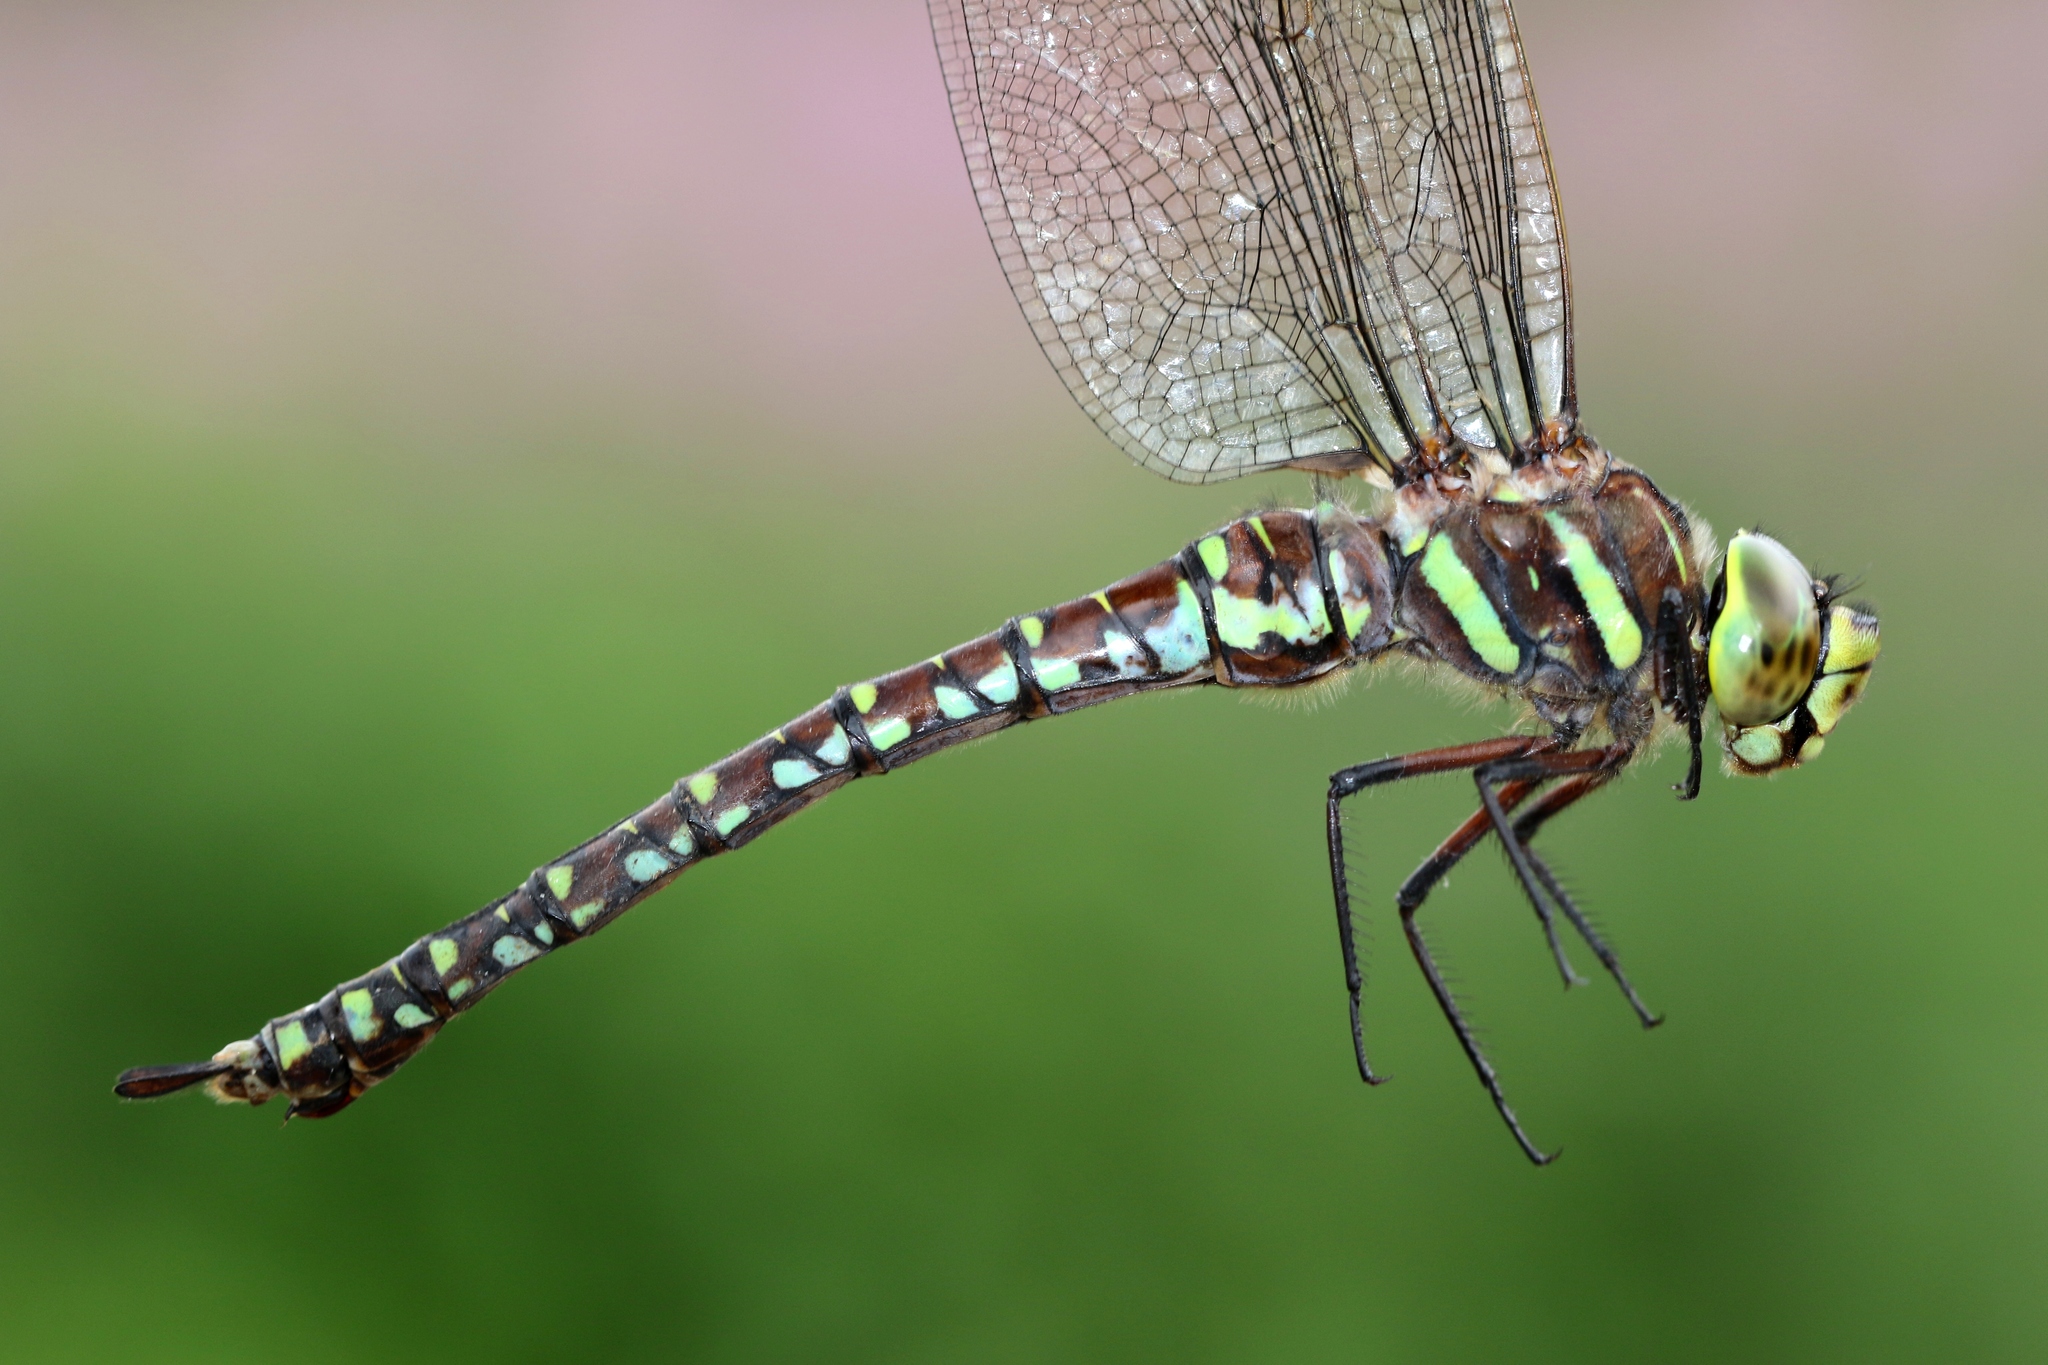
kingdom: Animalia
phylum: Arthropoda
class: Insecta
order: Odonata
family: Aeshnidae
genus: Aeshna
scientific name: Aeshna juncea
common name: Moorland hawker
